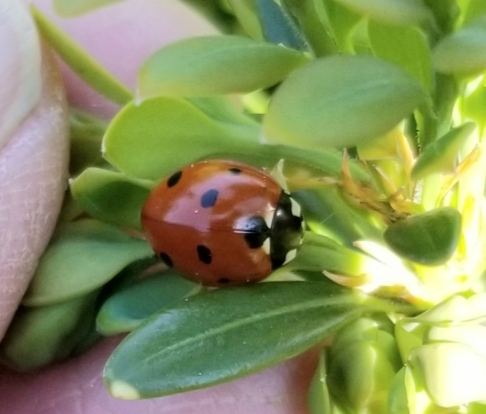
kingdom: Animalia
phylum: Arthropoda
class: Insecta
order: Coleoptera
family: Coccinellidae
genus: Coccinella
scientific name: Coccinella septempunctata
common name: Sevenspotted lady beetle
